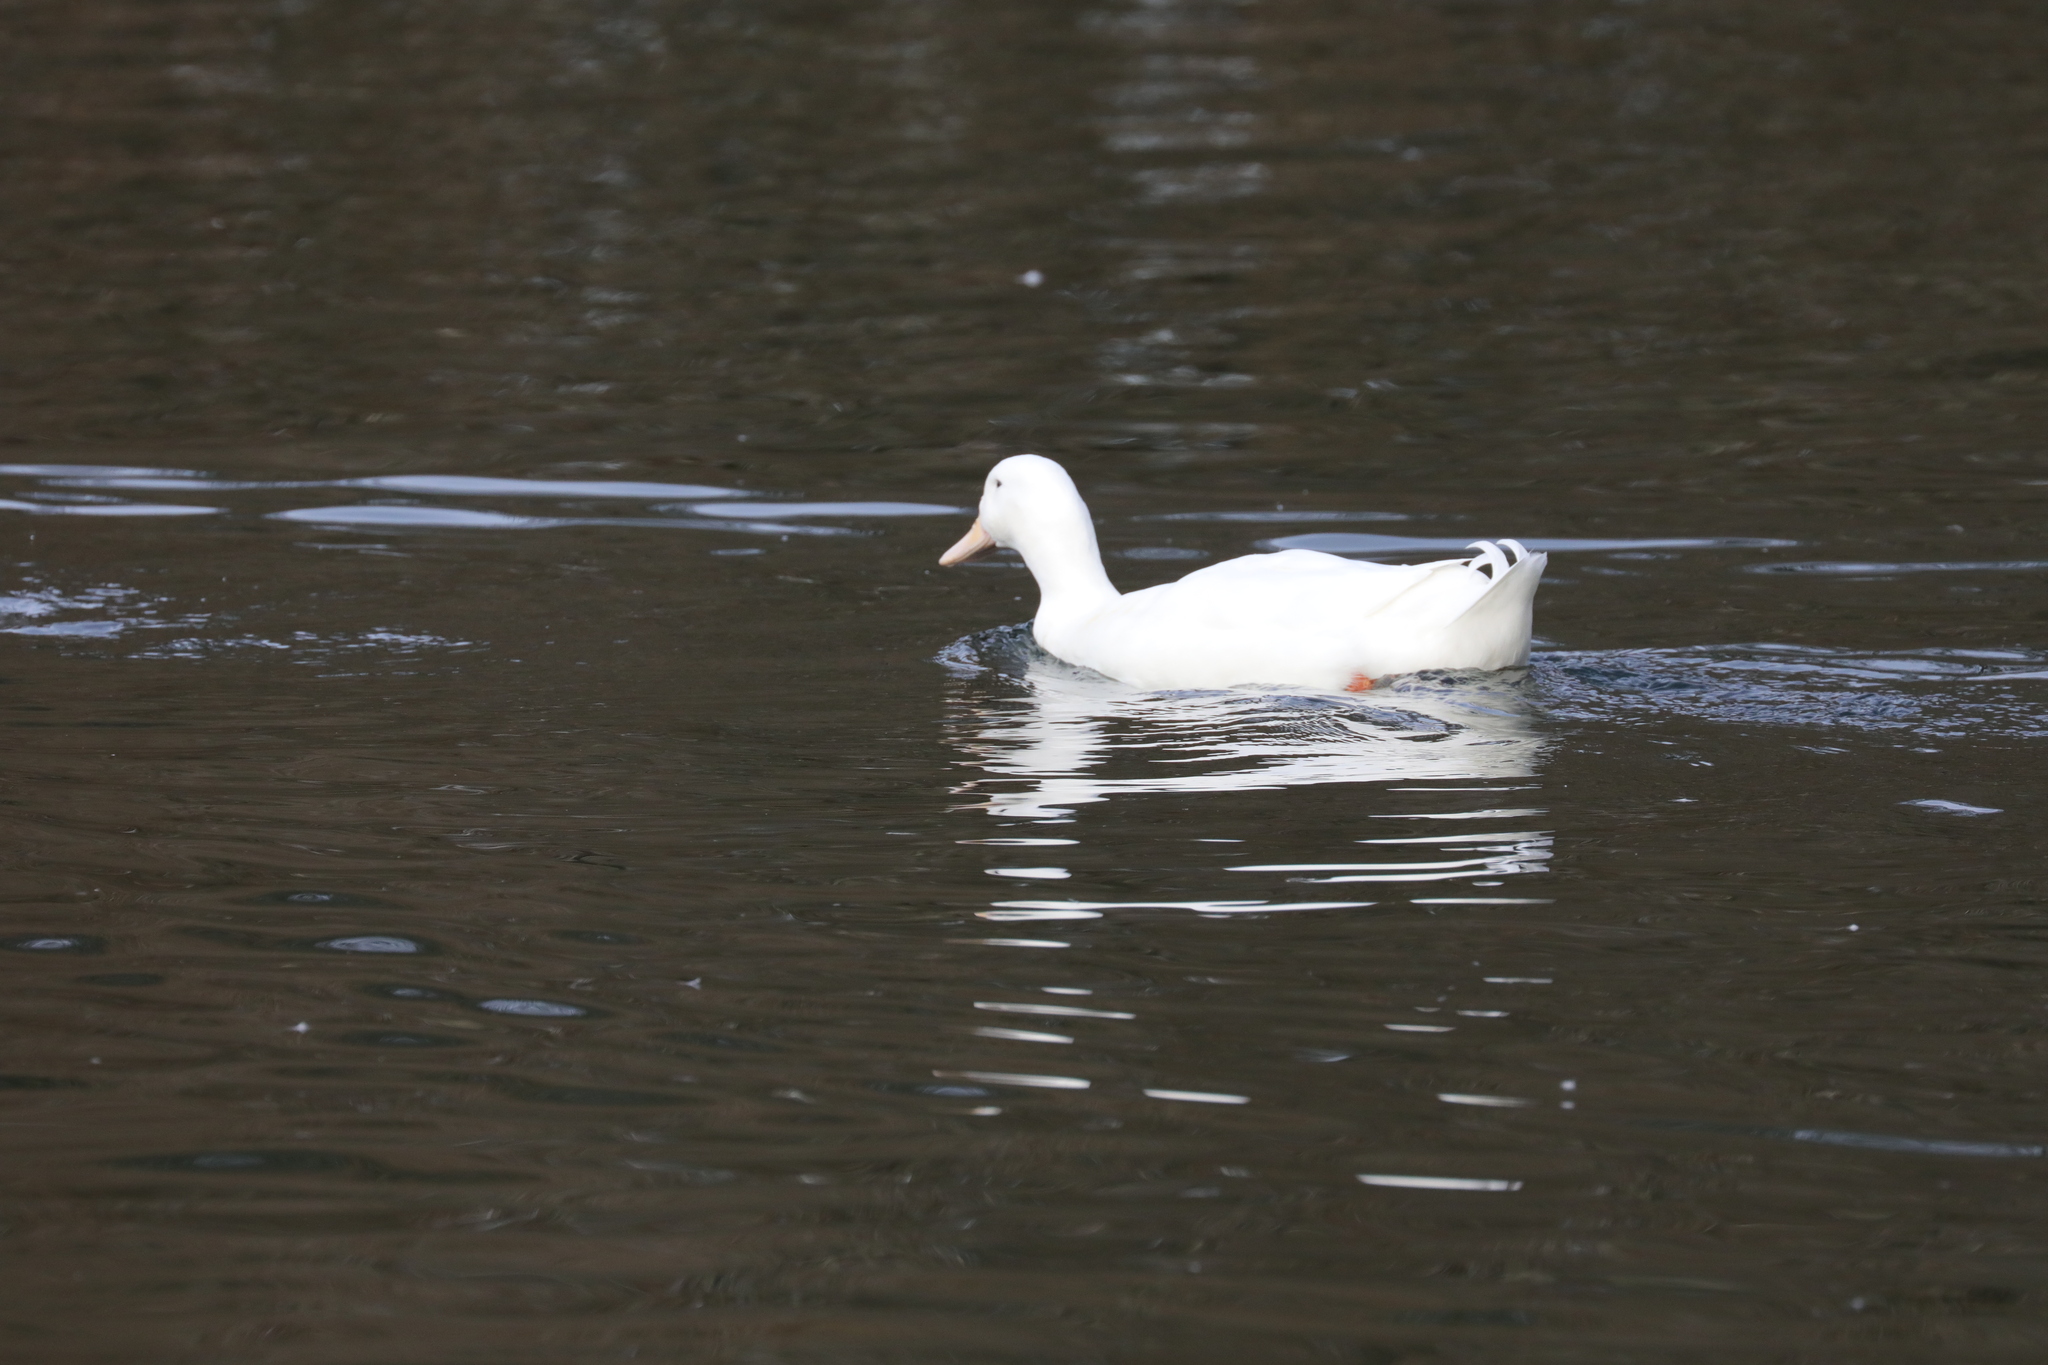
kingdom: Animalia
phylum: Chordata
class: Aves
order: Anseriformes
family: Anatidae
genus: Anas
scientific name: Anas platyrhynchos
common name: Mallard
